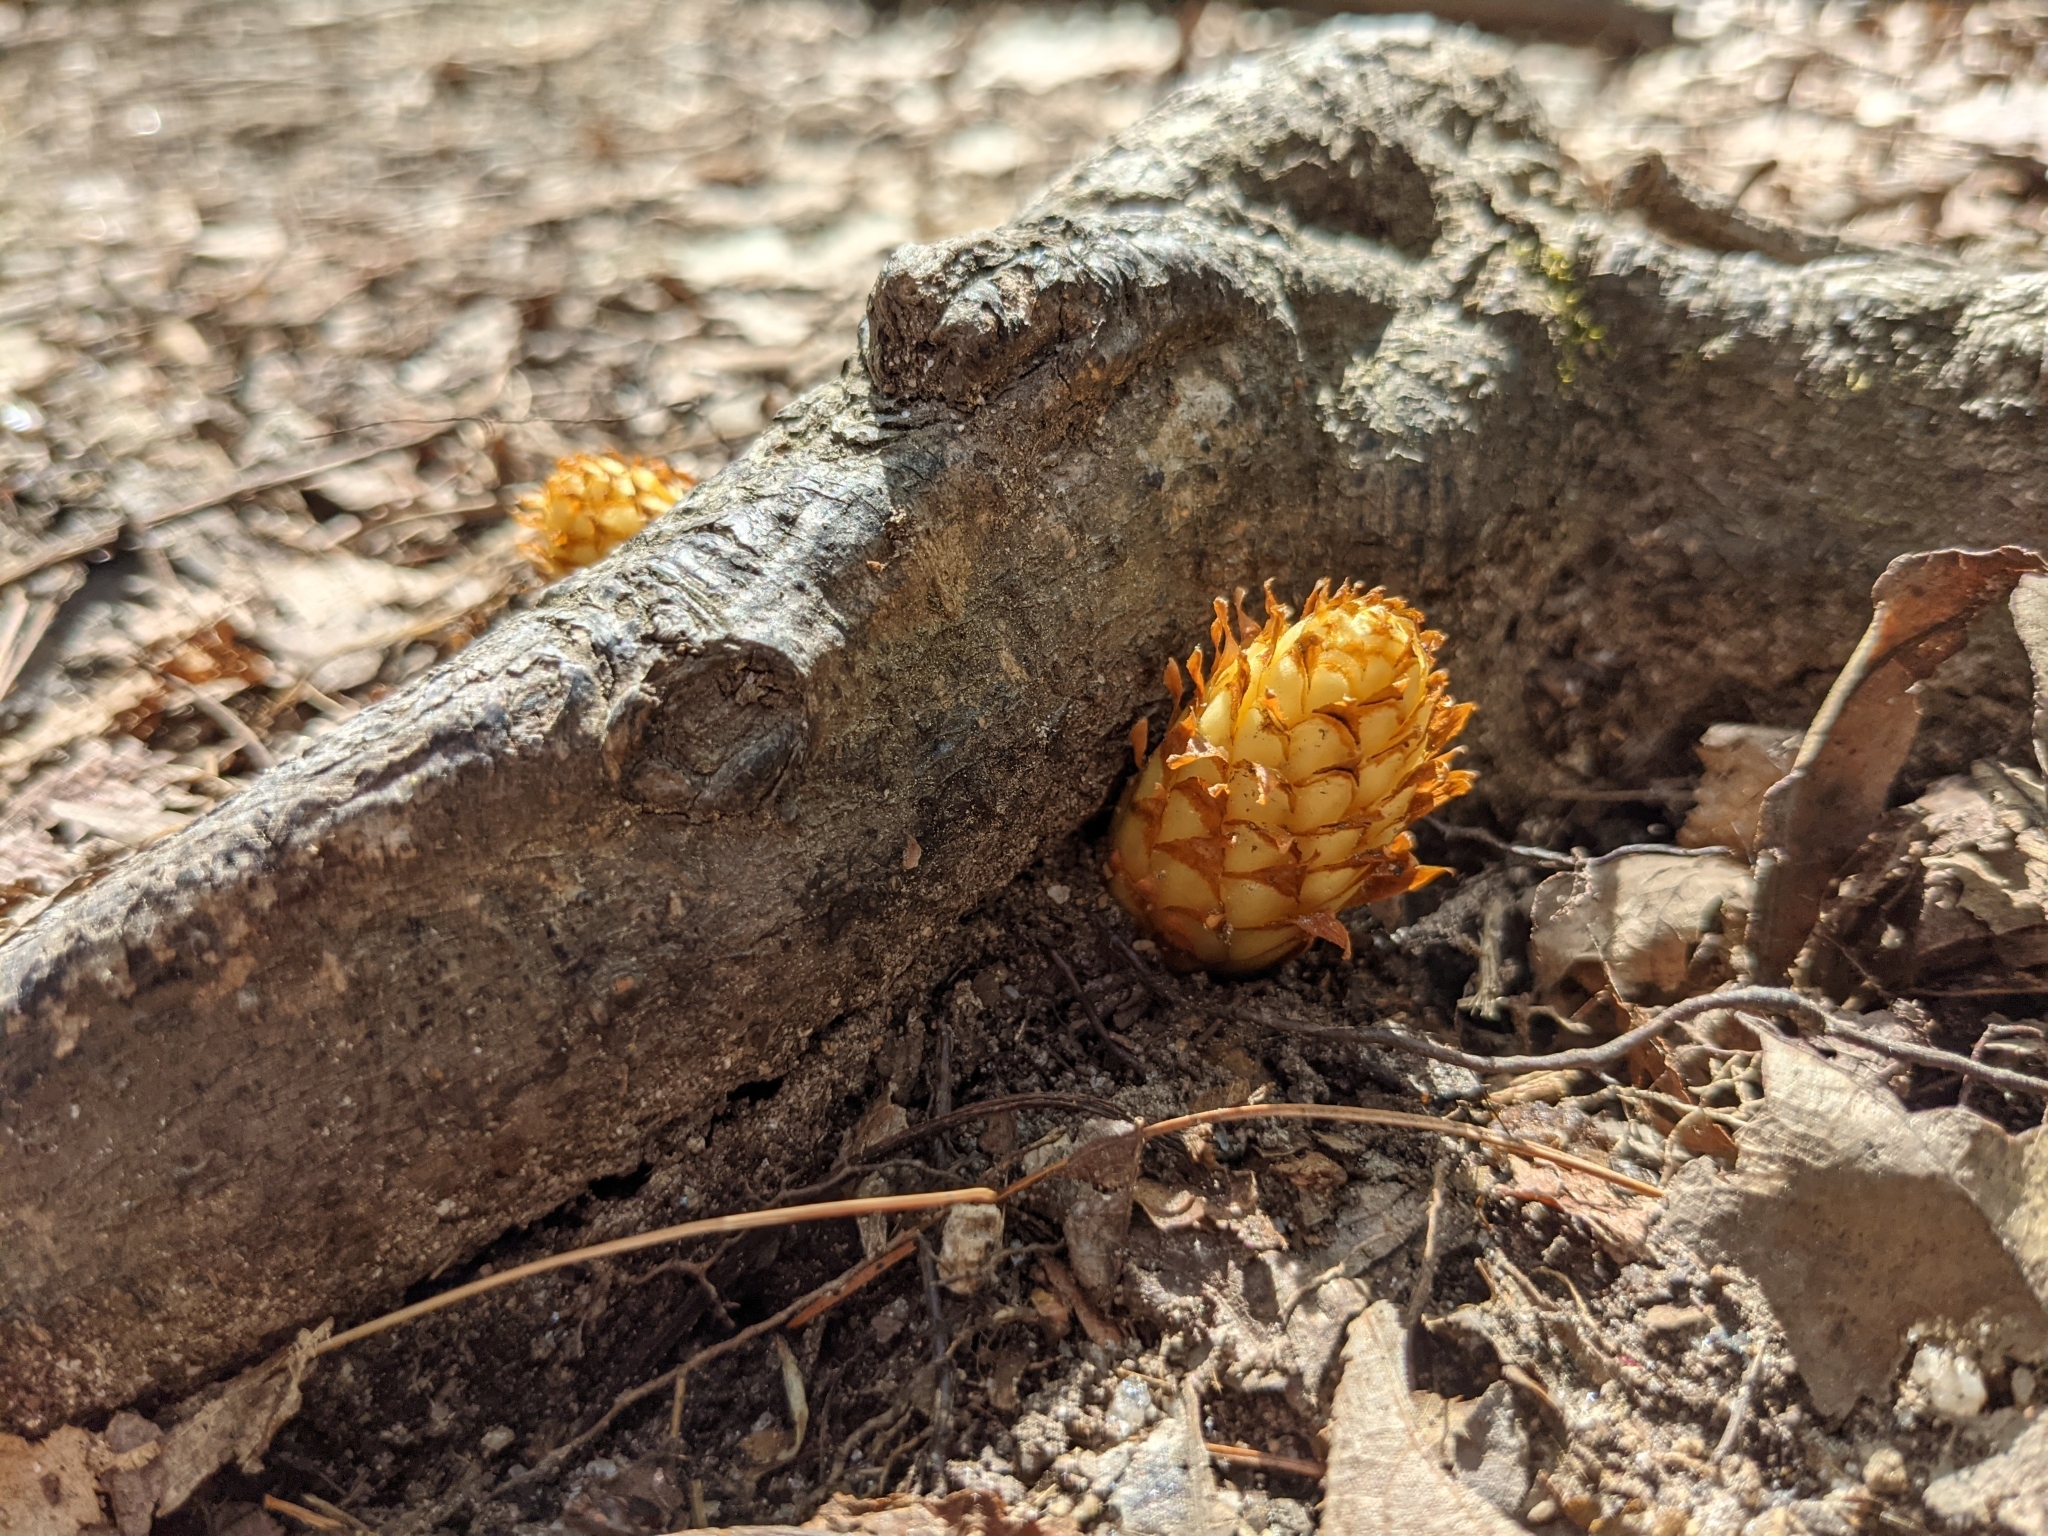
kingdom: Plantae
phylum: Tracheophyta
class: Magnoliopsida
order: Lamiales
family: Orobanchaceae
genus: Conopholis
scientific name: Conopholis americana
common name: American cancer-root
